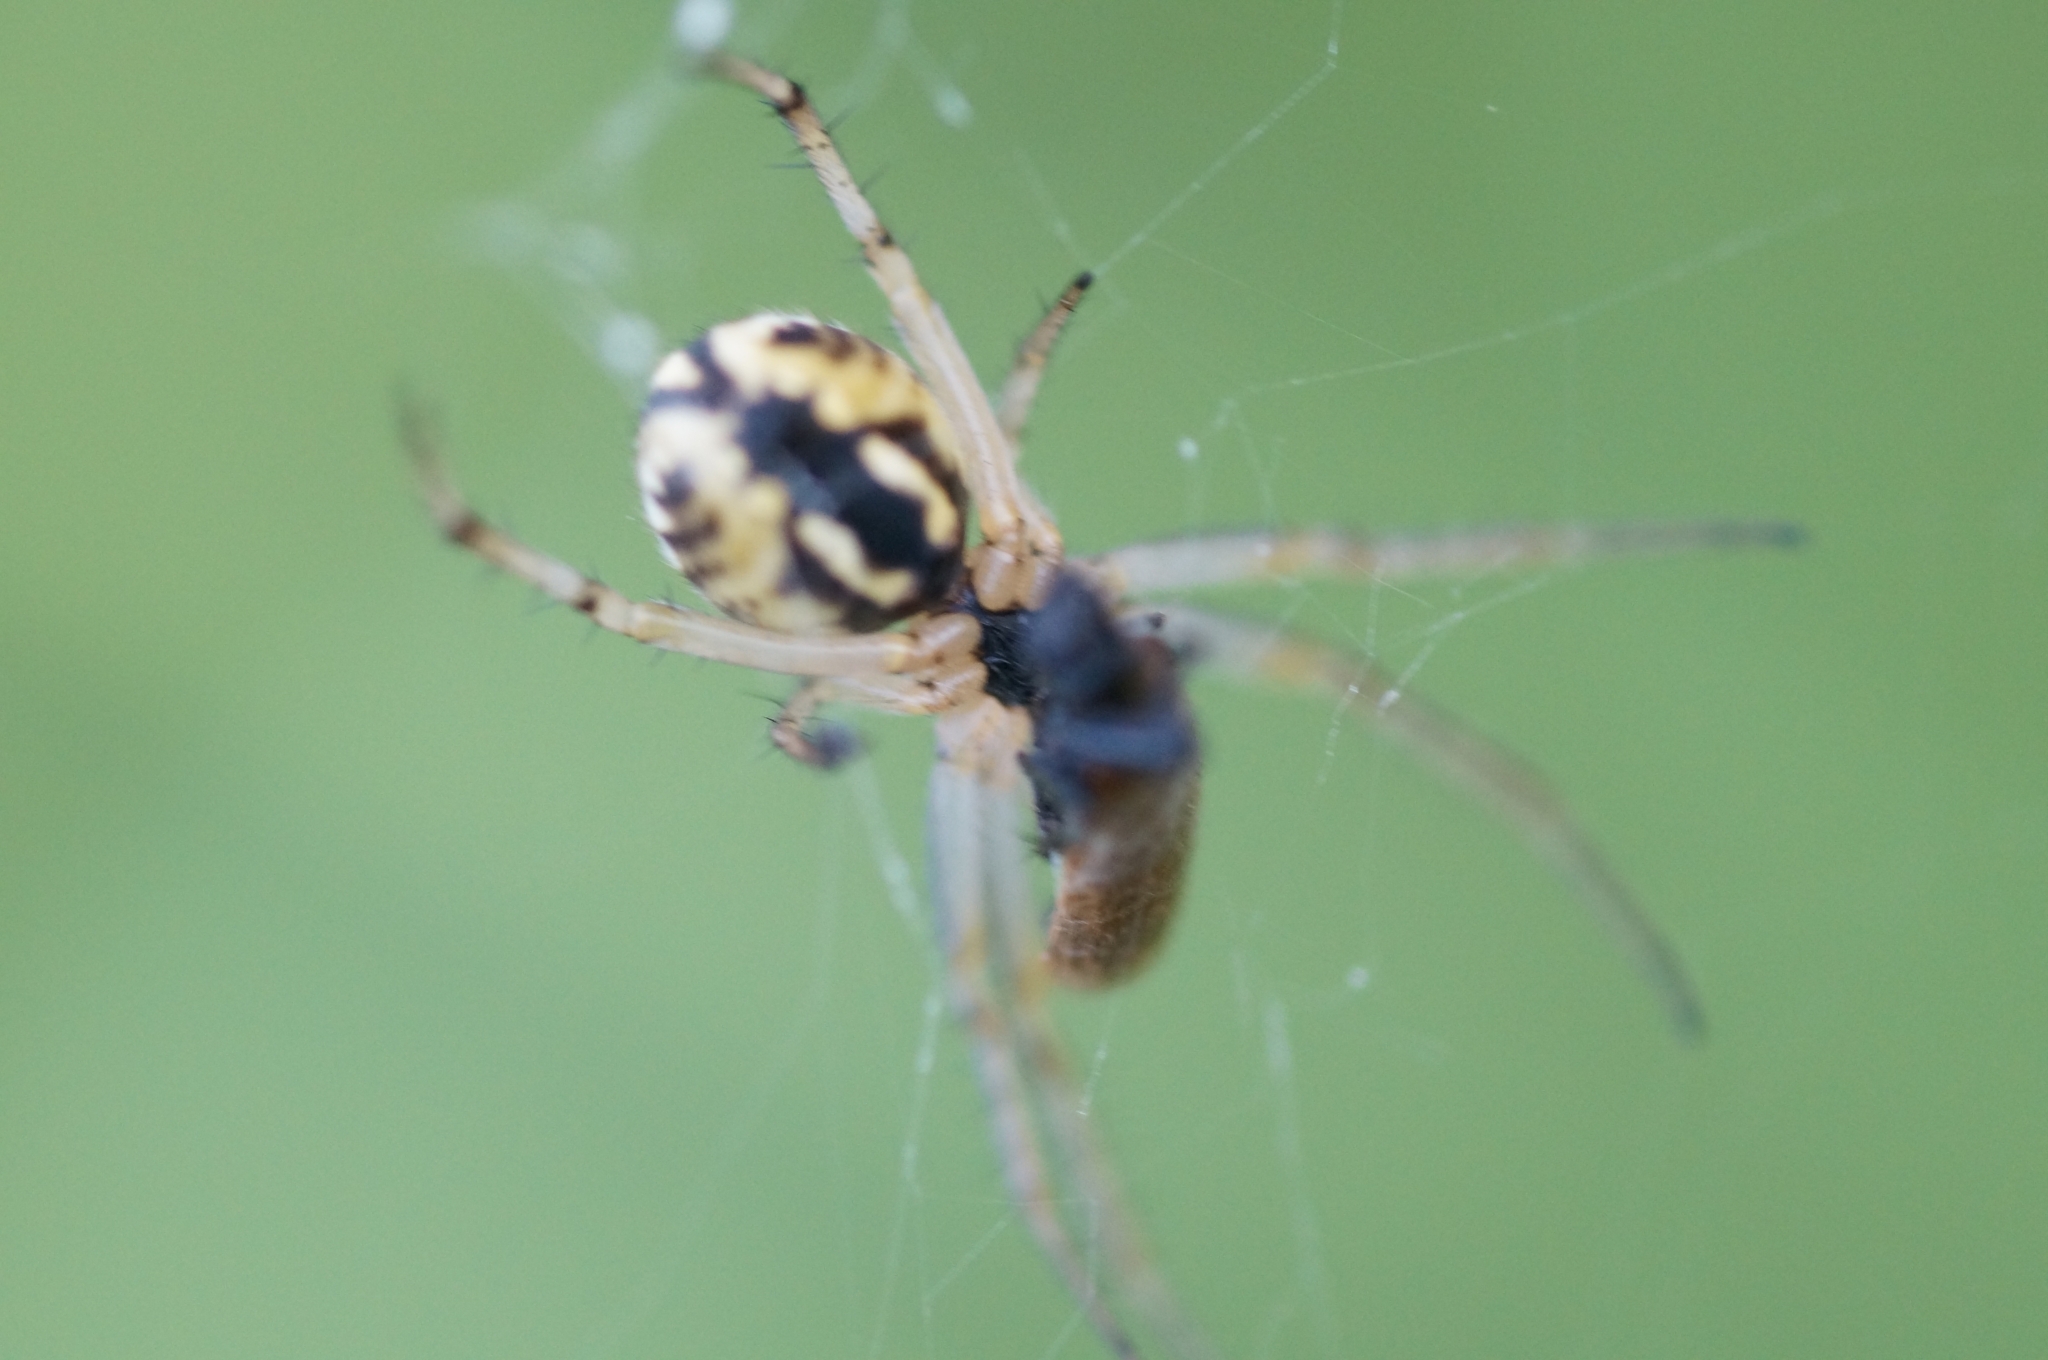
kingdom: Animalia
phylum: Arthropoda
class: Arachnida
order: Araneae
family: Araneidae
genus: Neoscona
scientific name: Neoscona adianta
